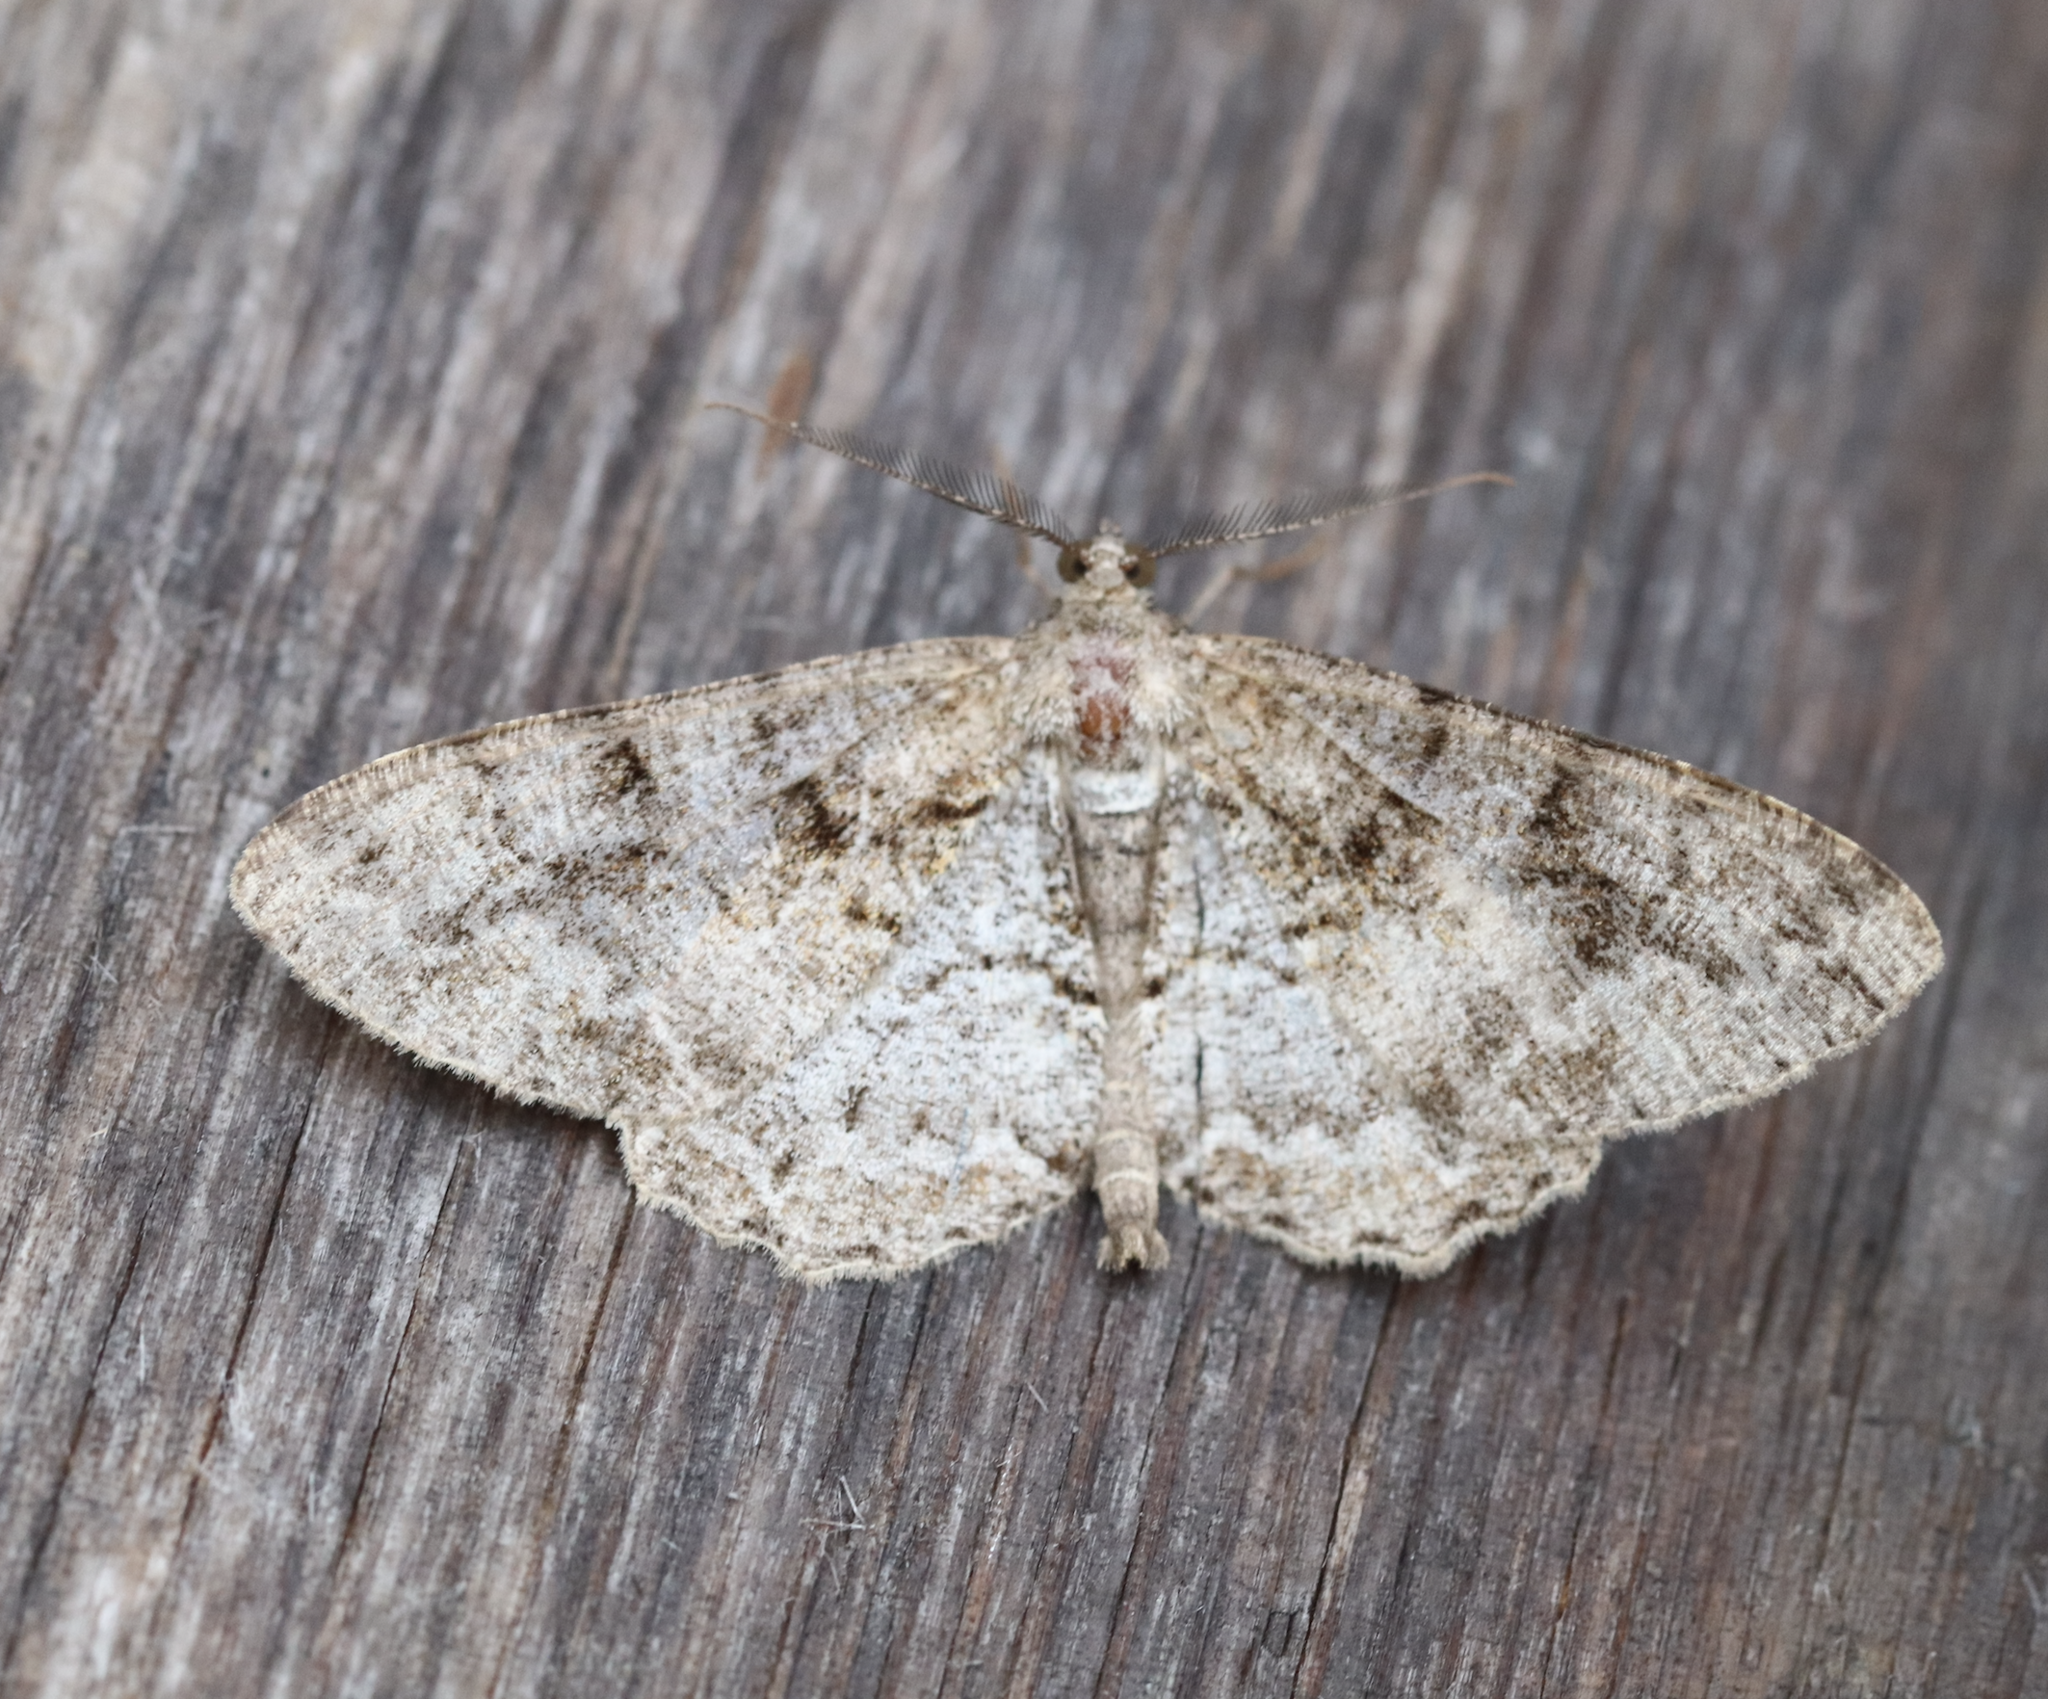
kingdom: Animalia
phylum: Arthropoda
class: Insecta
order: Lepidoptera
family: Geometridae
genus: Alcis
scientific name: Alcis repandata
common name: Mottled beauty
